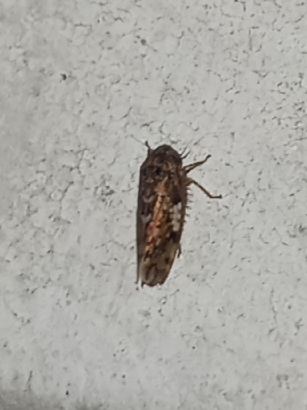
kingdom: Animalia
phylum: Arthropoda
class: Insecta
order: Hemiptera
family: Cicadellidae
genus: Xestocephalus
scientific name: Xestocephalus tessellatus
